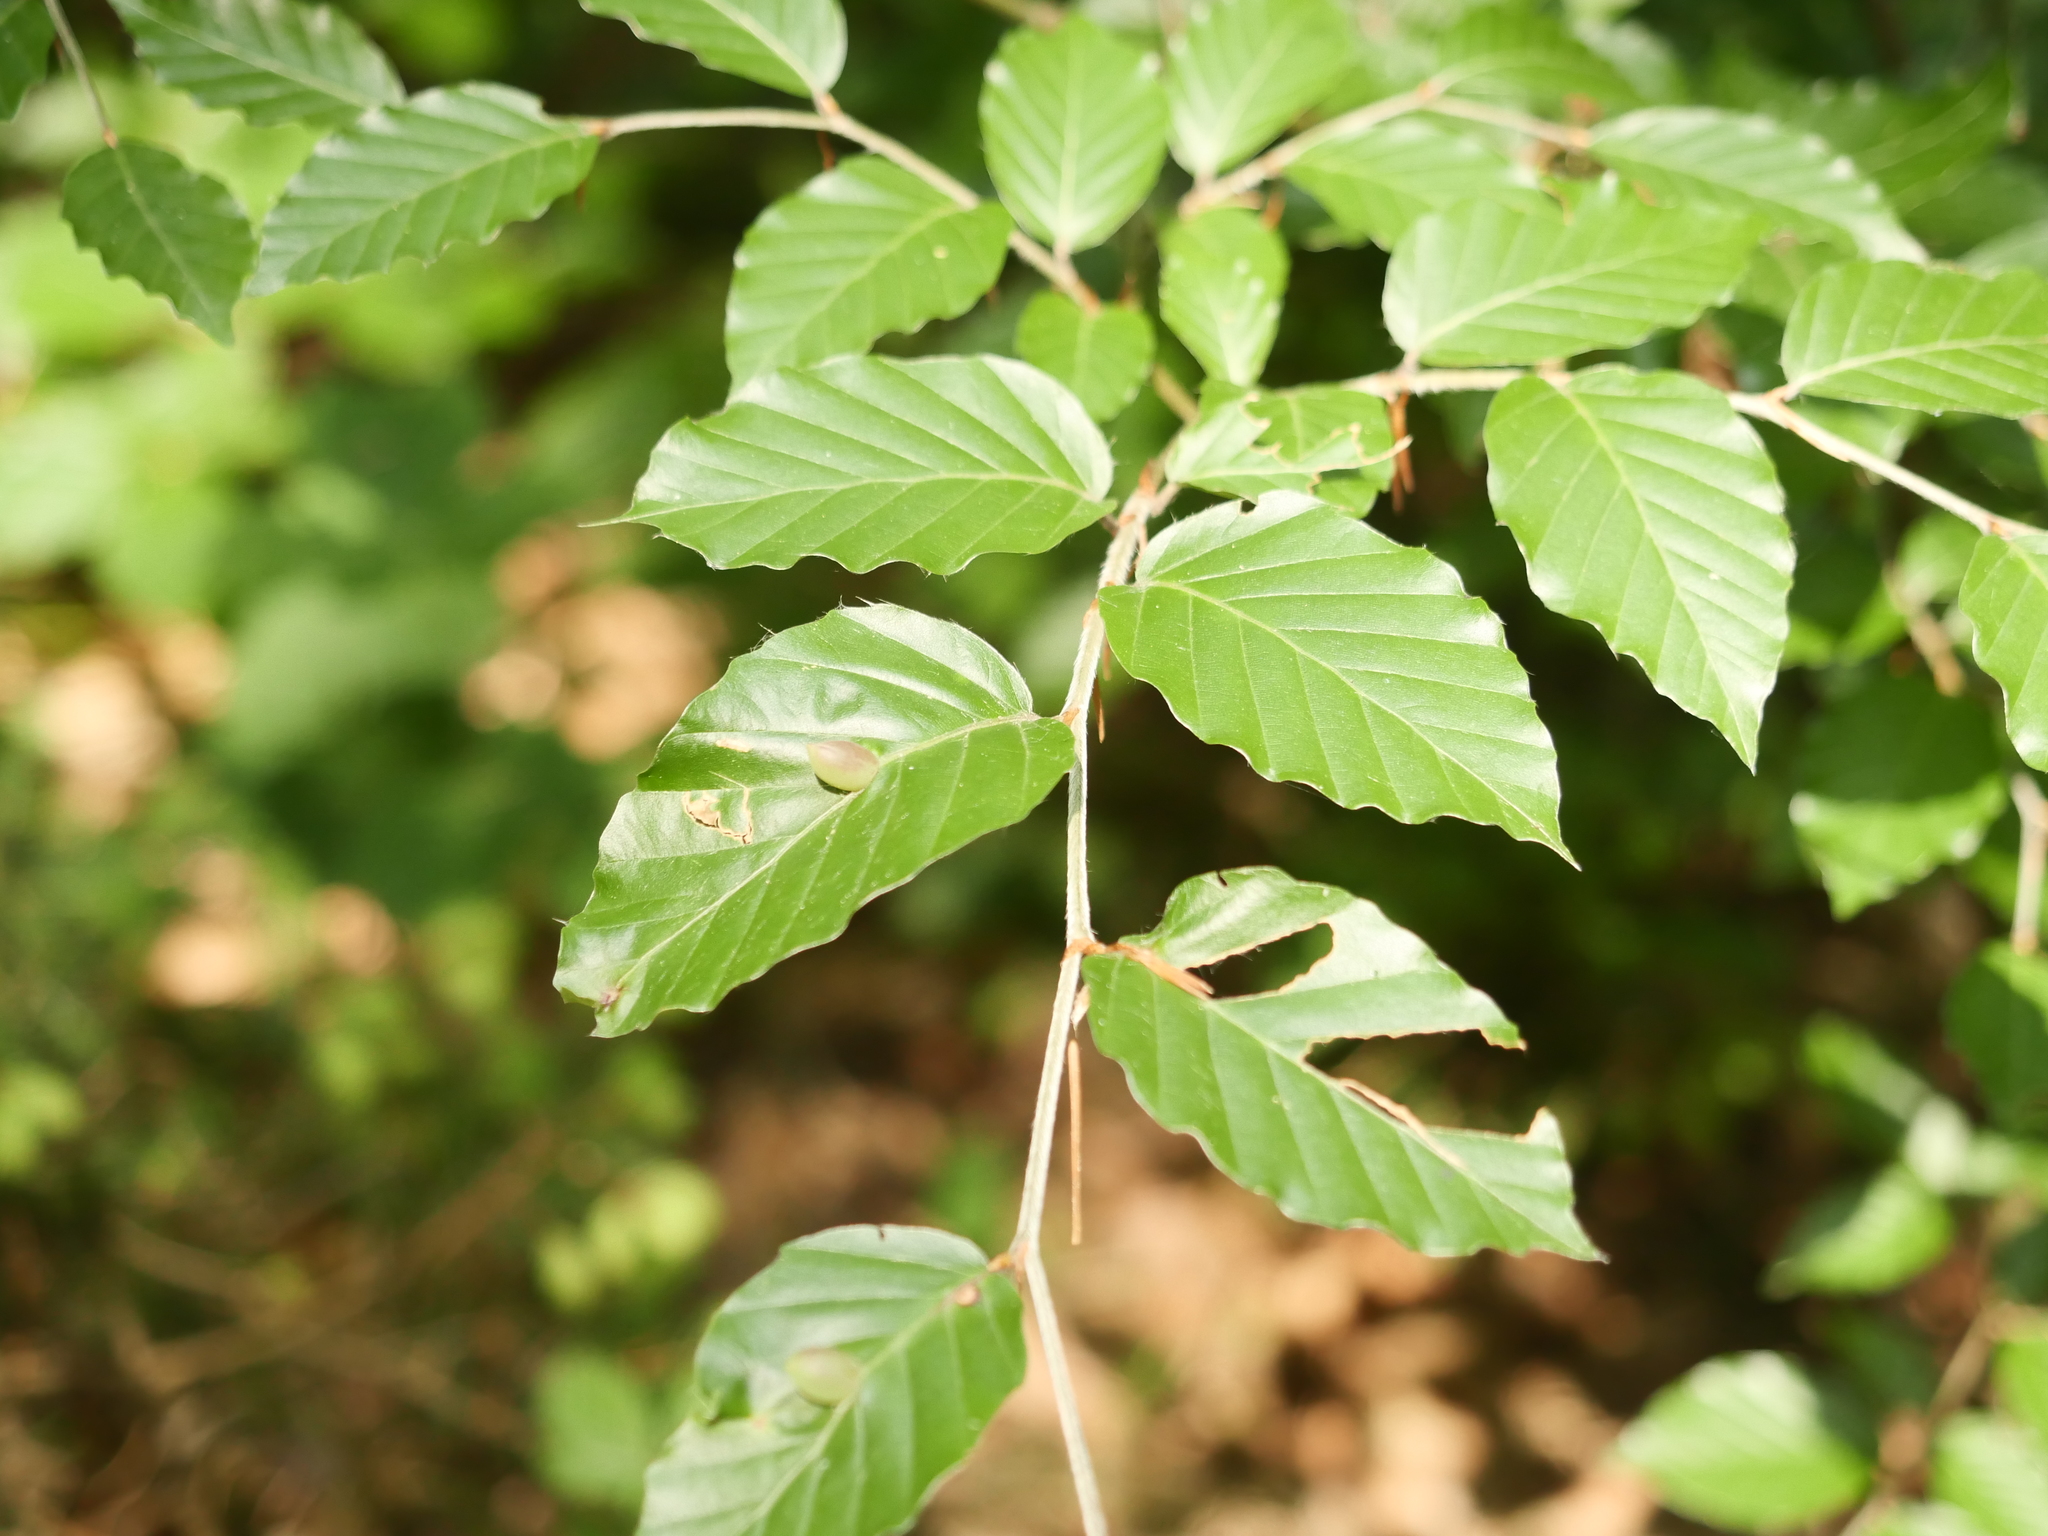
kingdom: Plantae
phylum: Tracheophyta
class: Magnoliopsida
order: Fagales
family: Fagaceae
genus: Fagus
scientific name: Fagus sylvatica
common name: Beech
